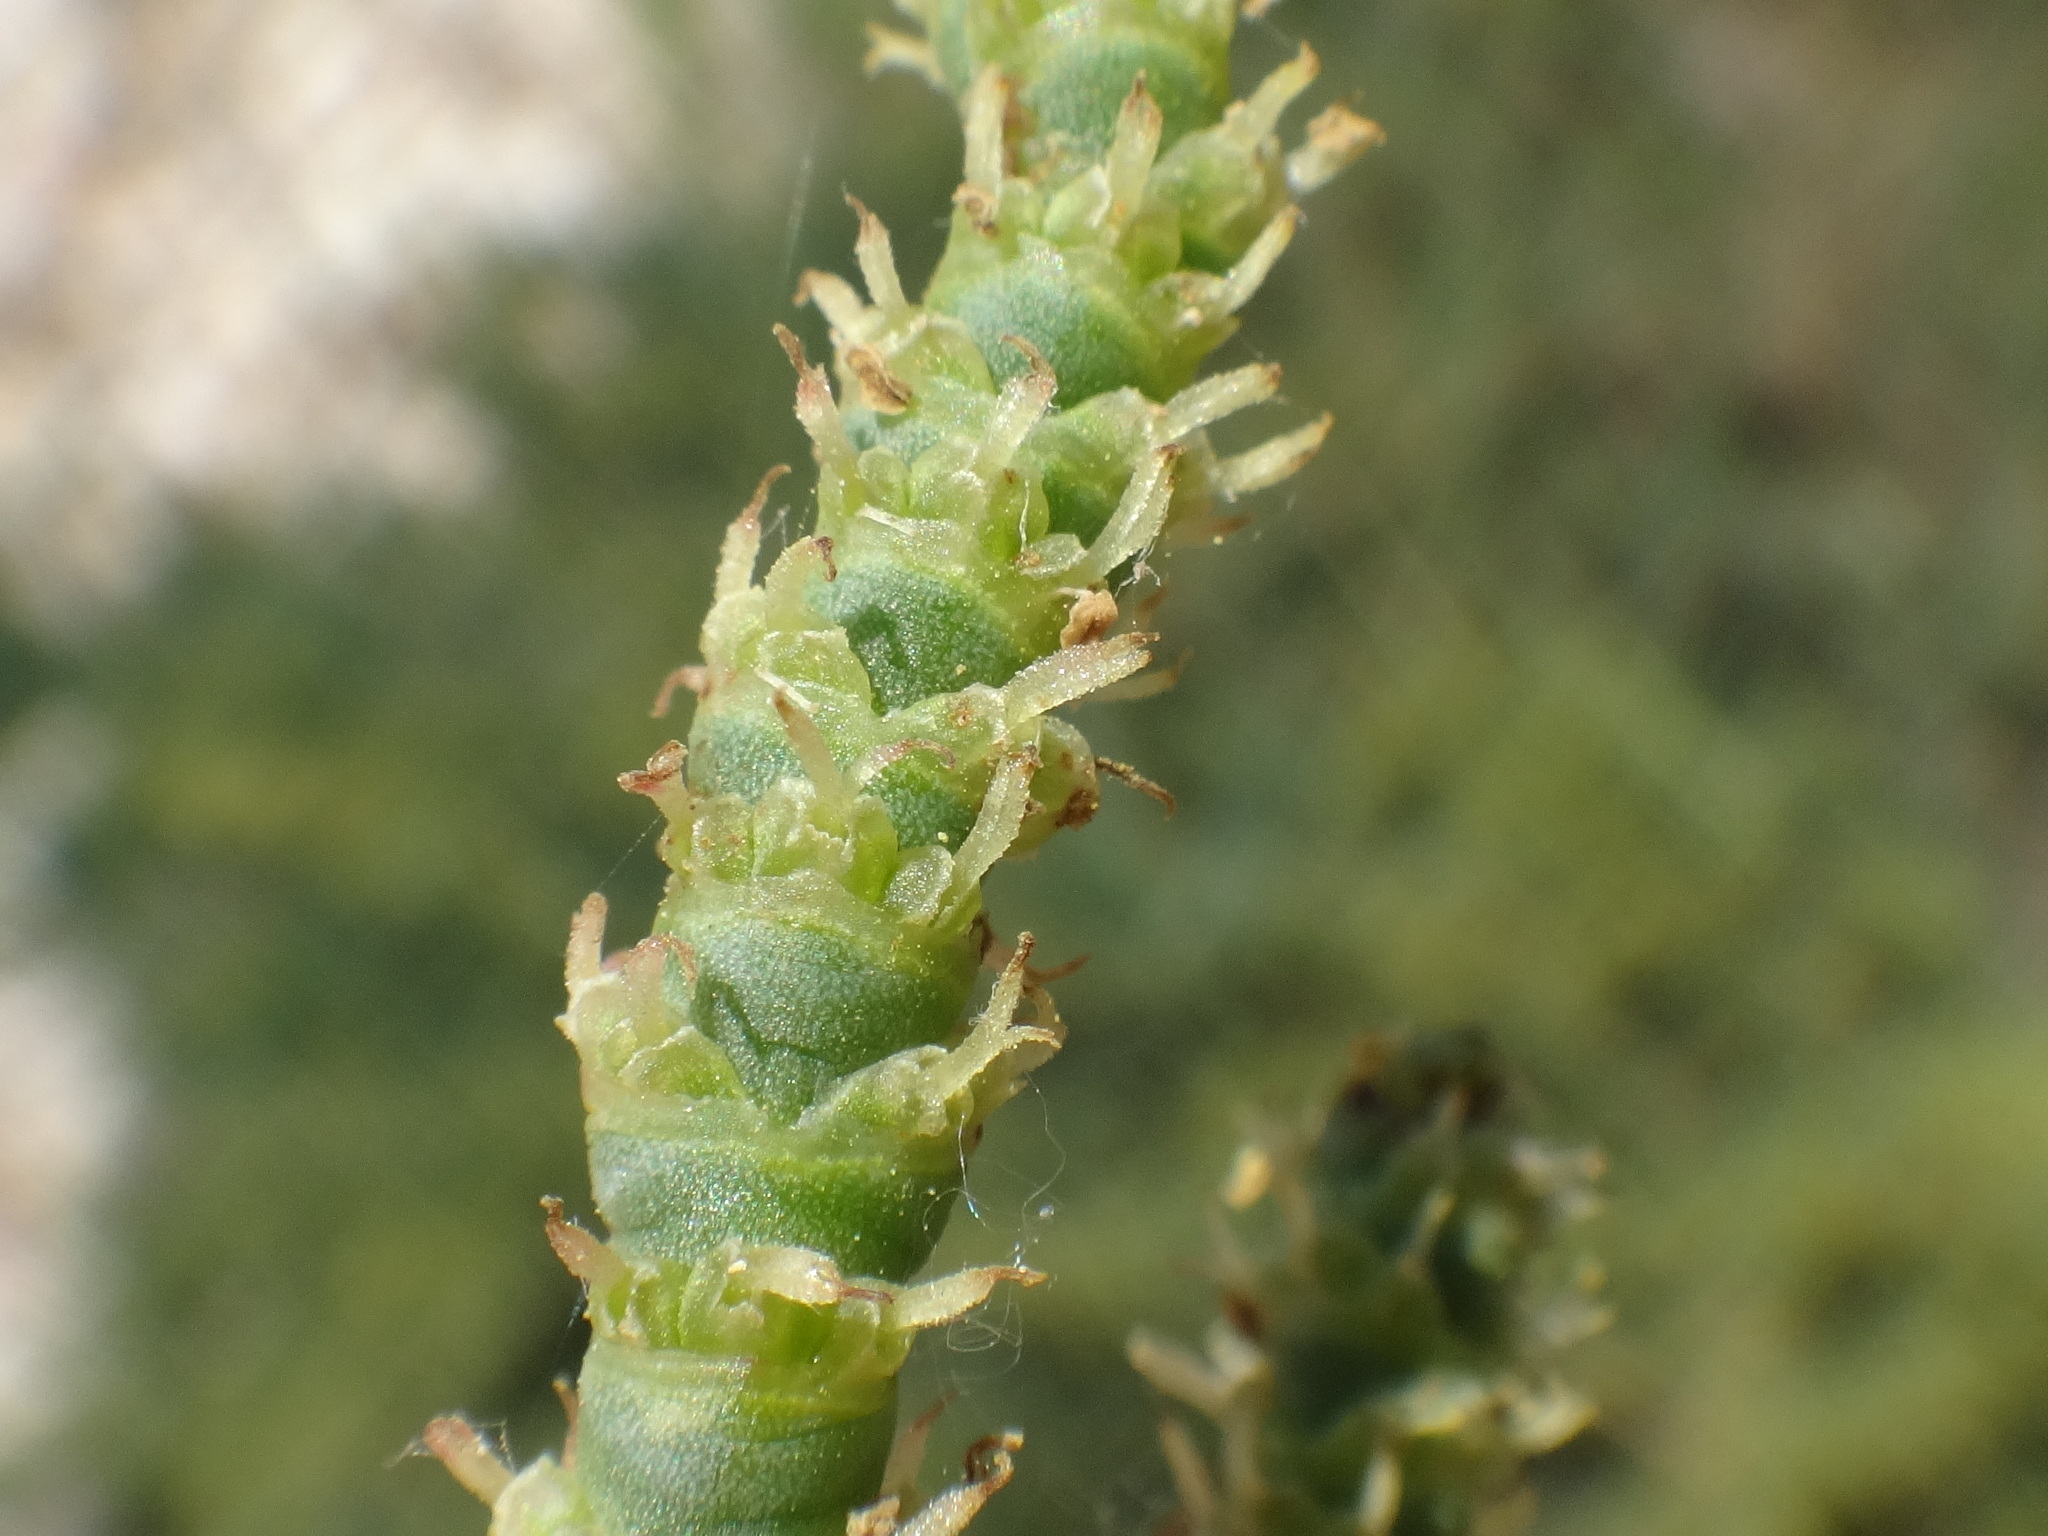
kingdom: Plantae
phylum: Tracheophyta
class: Magnoliopsida
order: Caryophyllales
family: Amaranthaceae
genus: Arthrocaulon
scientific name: Arthrocaulon macrostachyum
